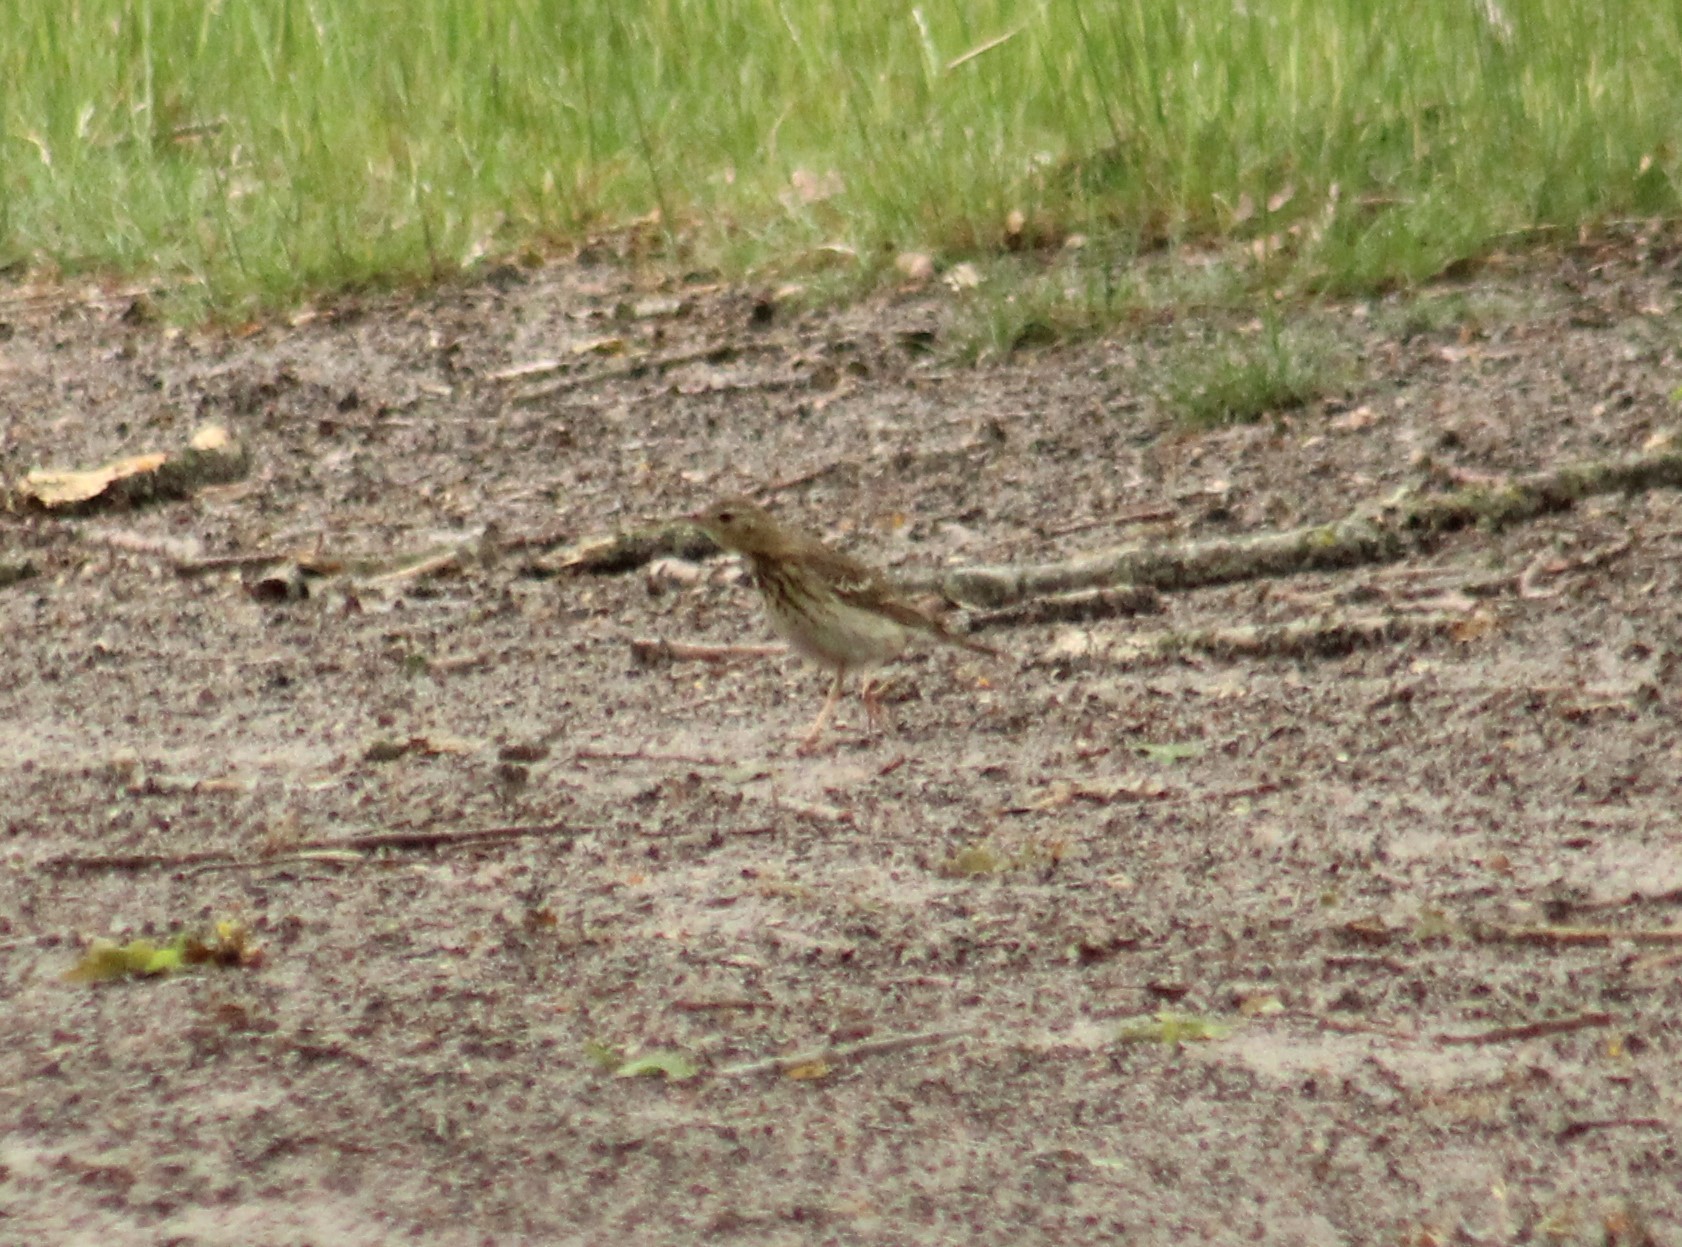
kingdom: Animalia
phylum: Chordata
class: Aves
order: Passeriformes
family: Motacillidae
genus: Anthus
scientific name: Anthus trivialis
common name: Tree pipit
